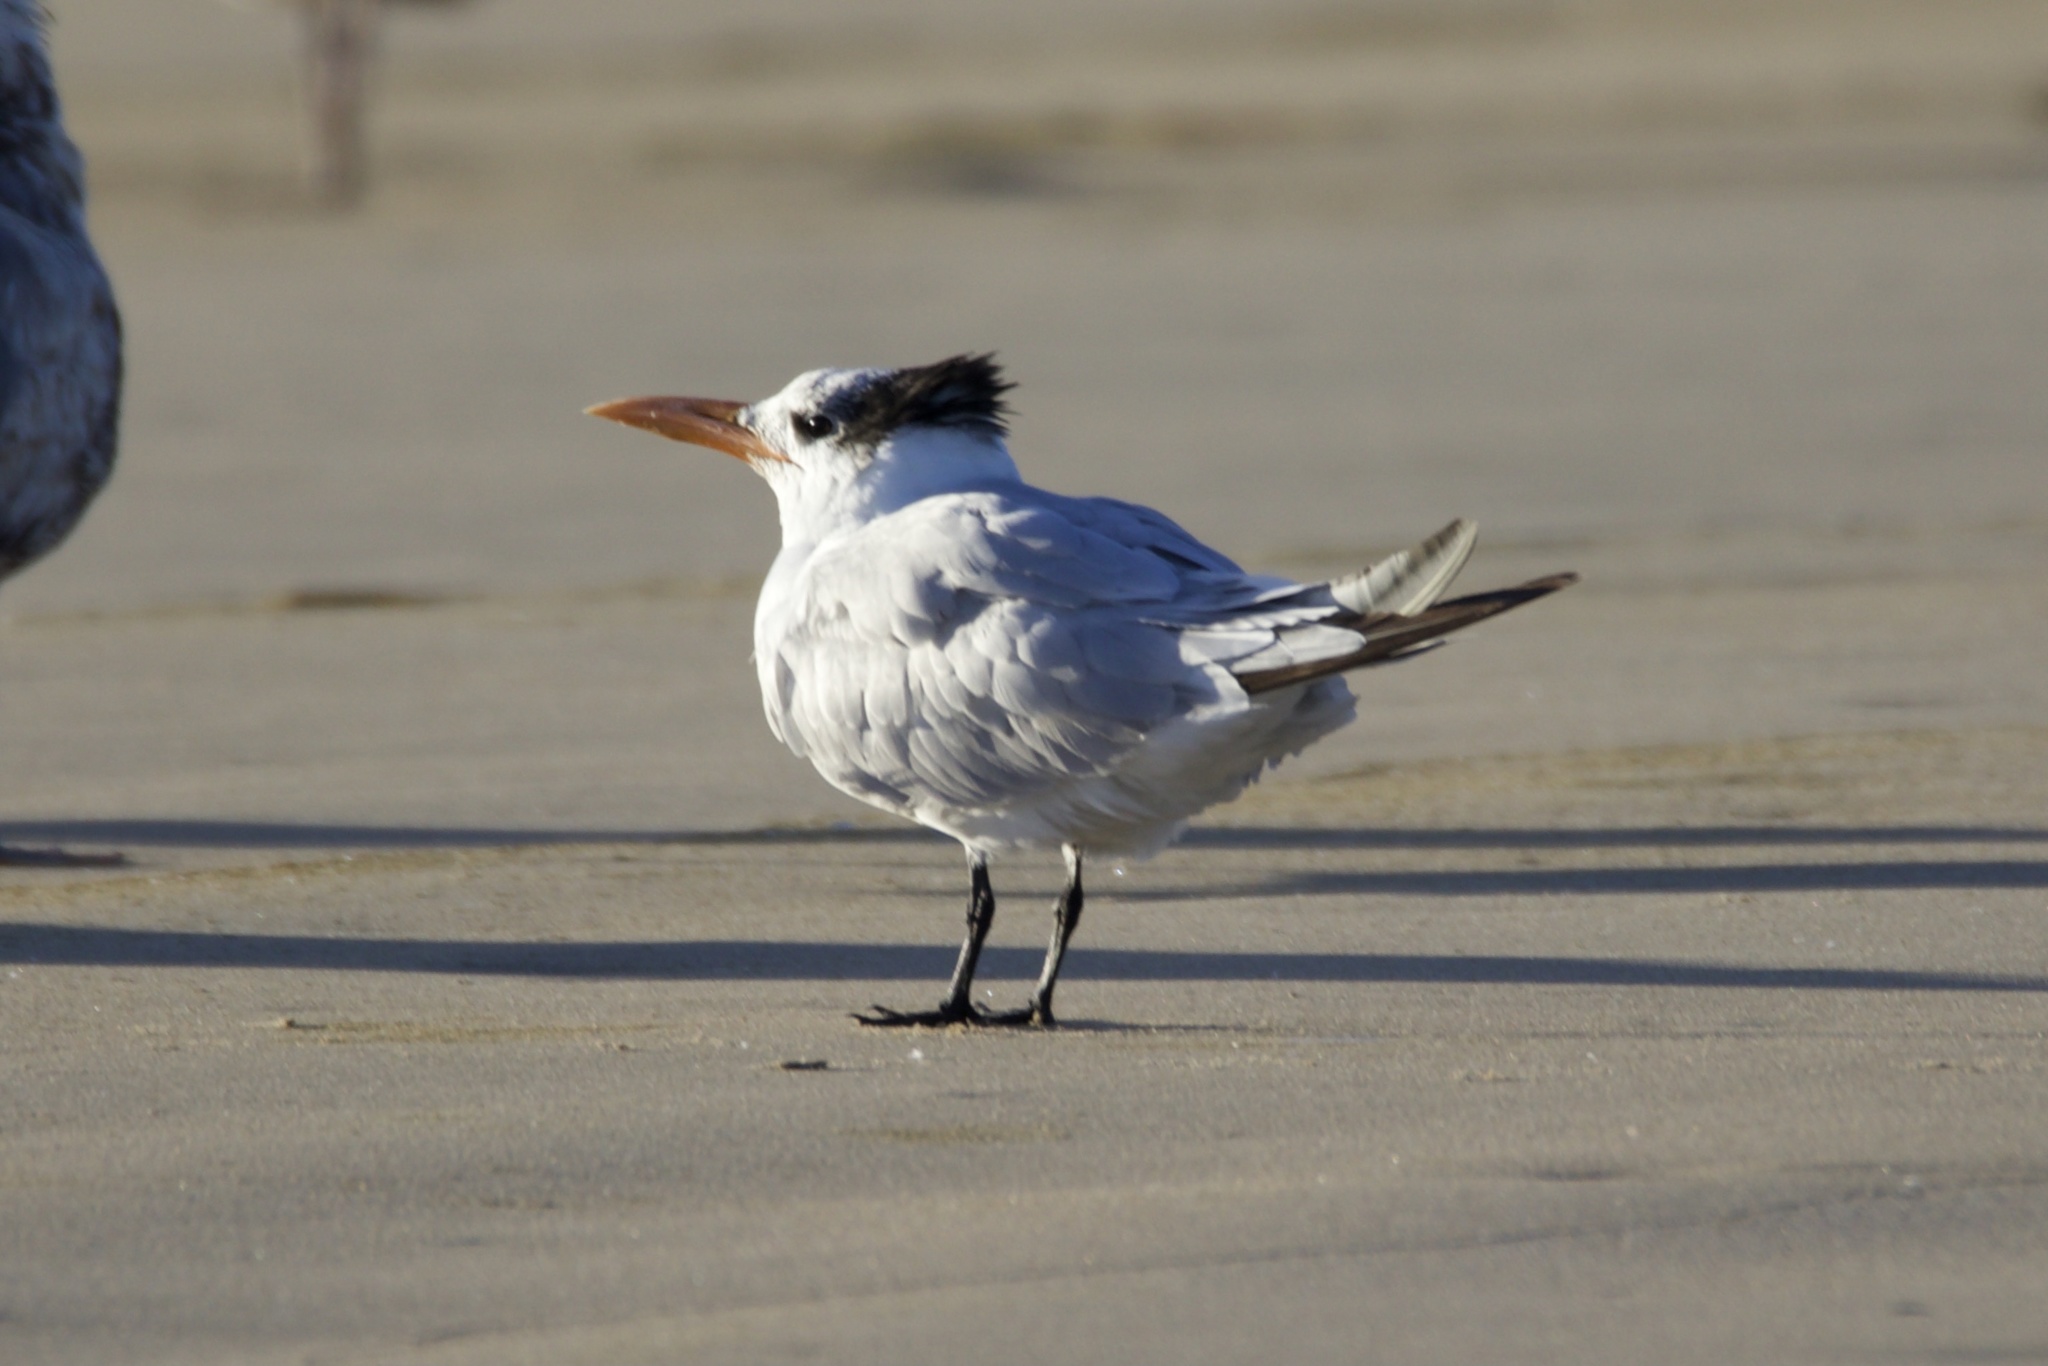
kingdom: Animalia
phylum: Chordata
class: Aves
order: Charadriiformes
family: Laridae
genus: Thalasseus
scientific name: Thalasseus maximus
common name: Royal tern
